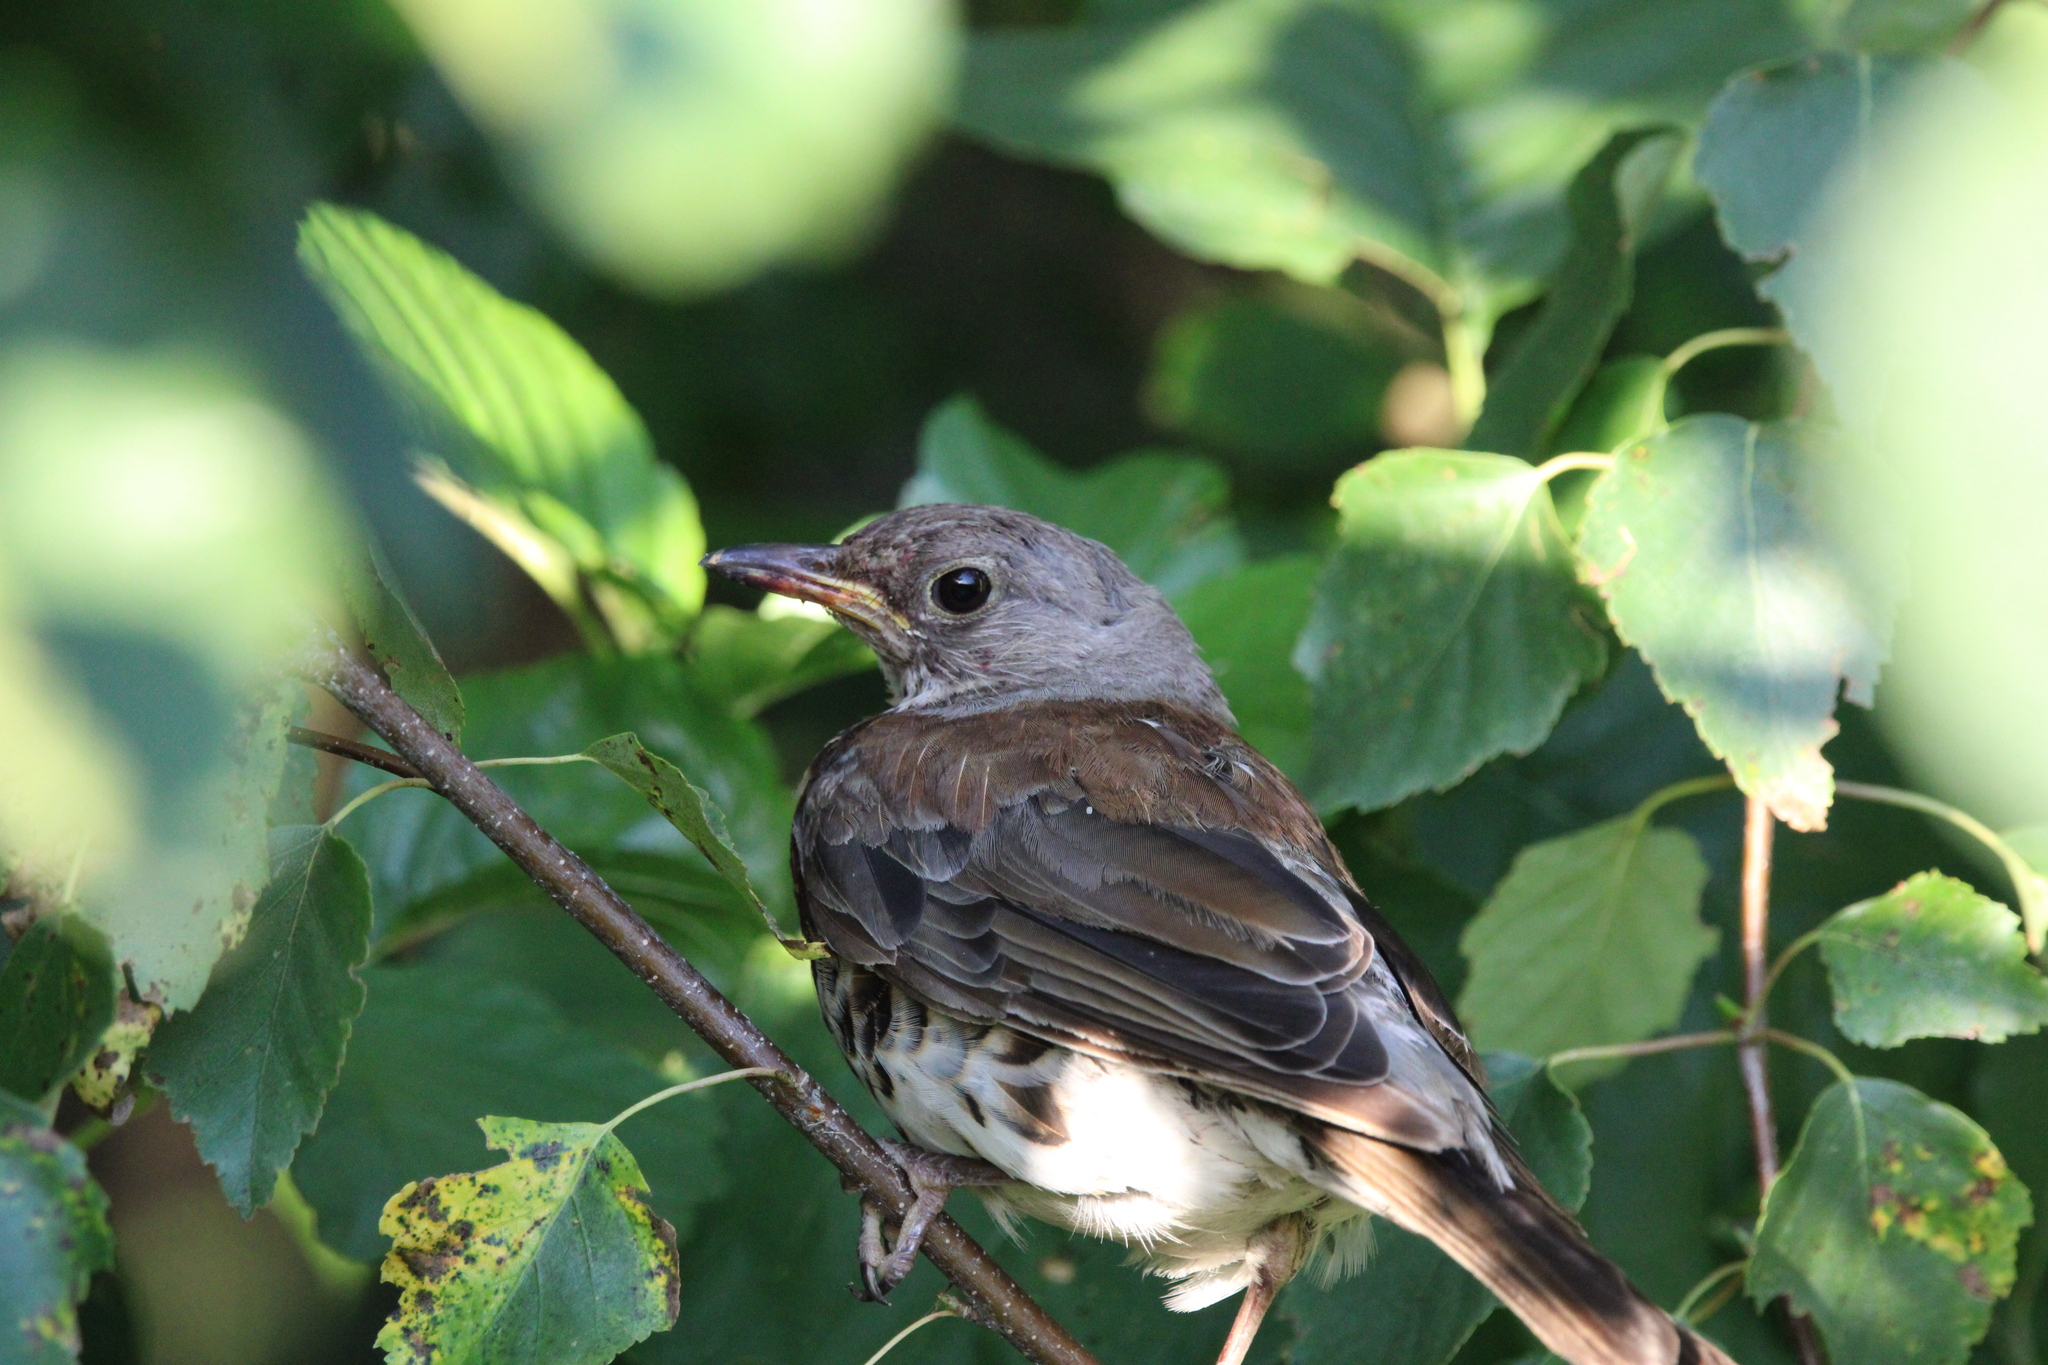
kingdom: Animalia
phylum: Chordata
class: Aves
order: Passeriformes
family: Turdidae
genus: Turdus
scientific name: Turdus pilaris
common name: Fieldfare
